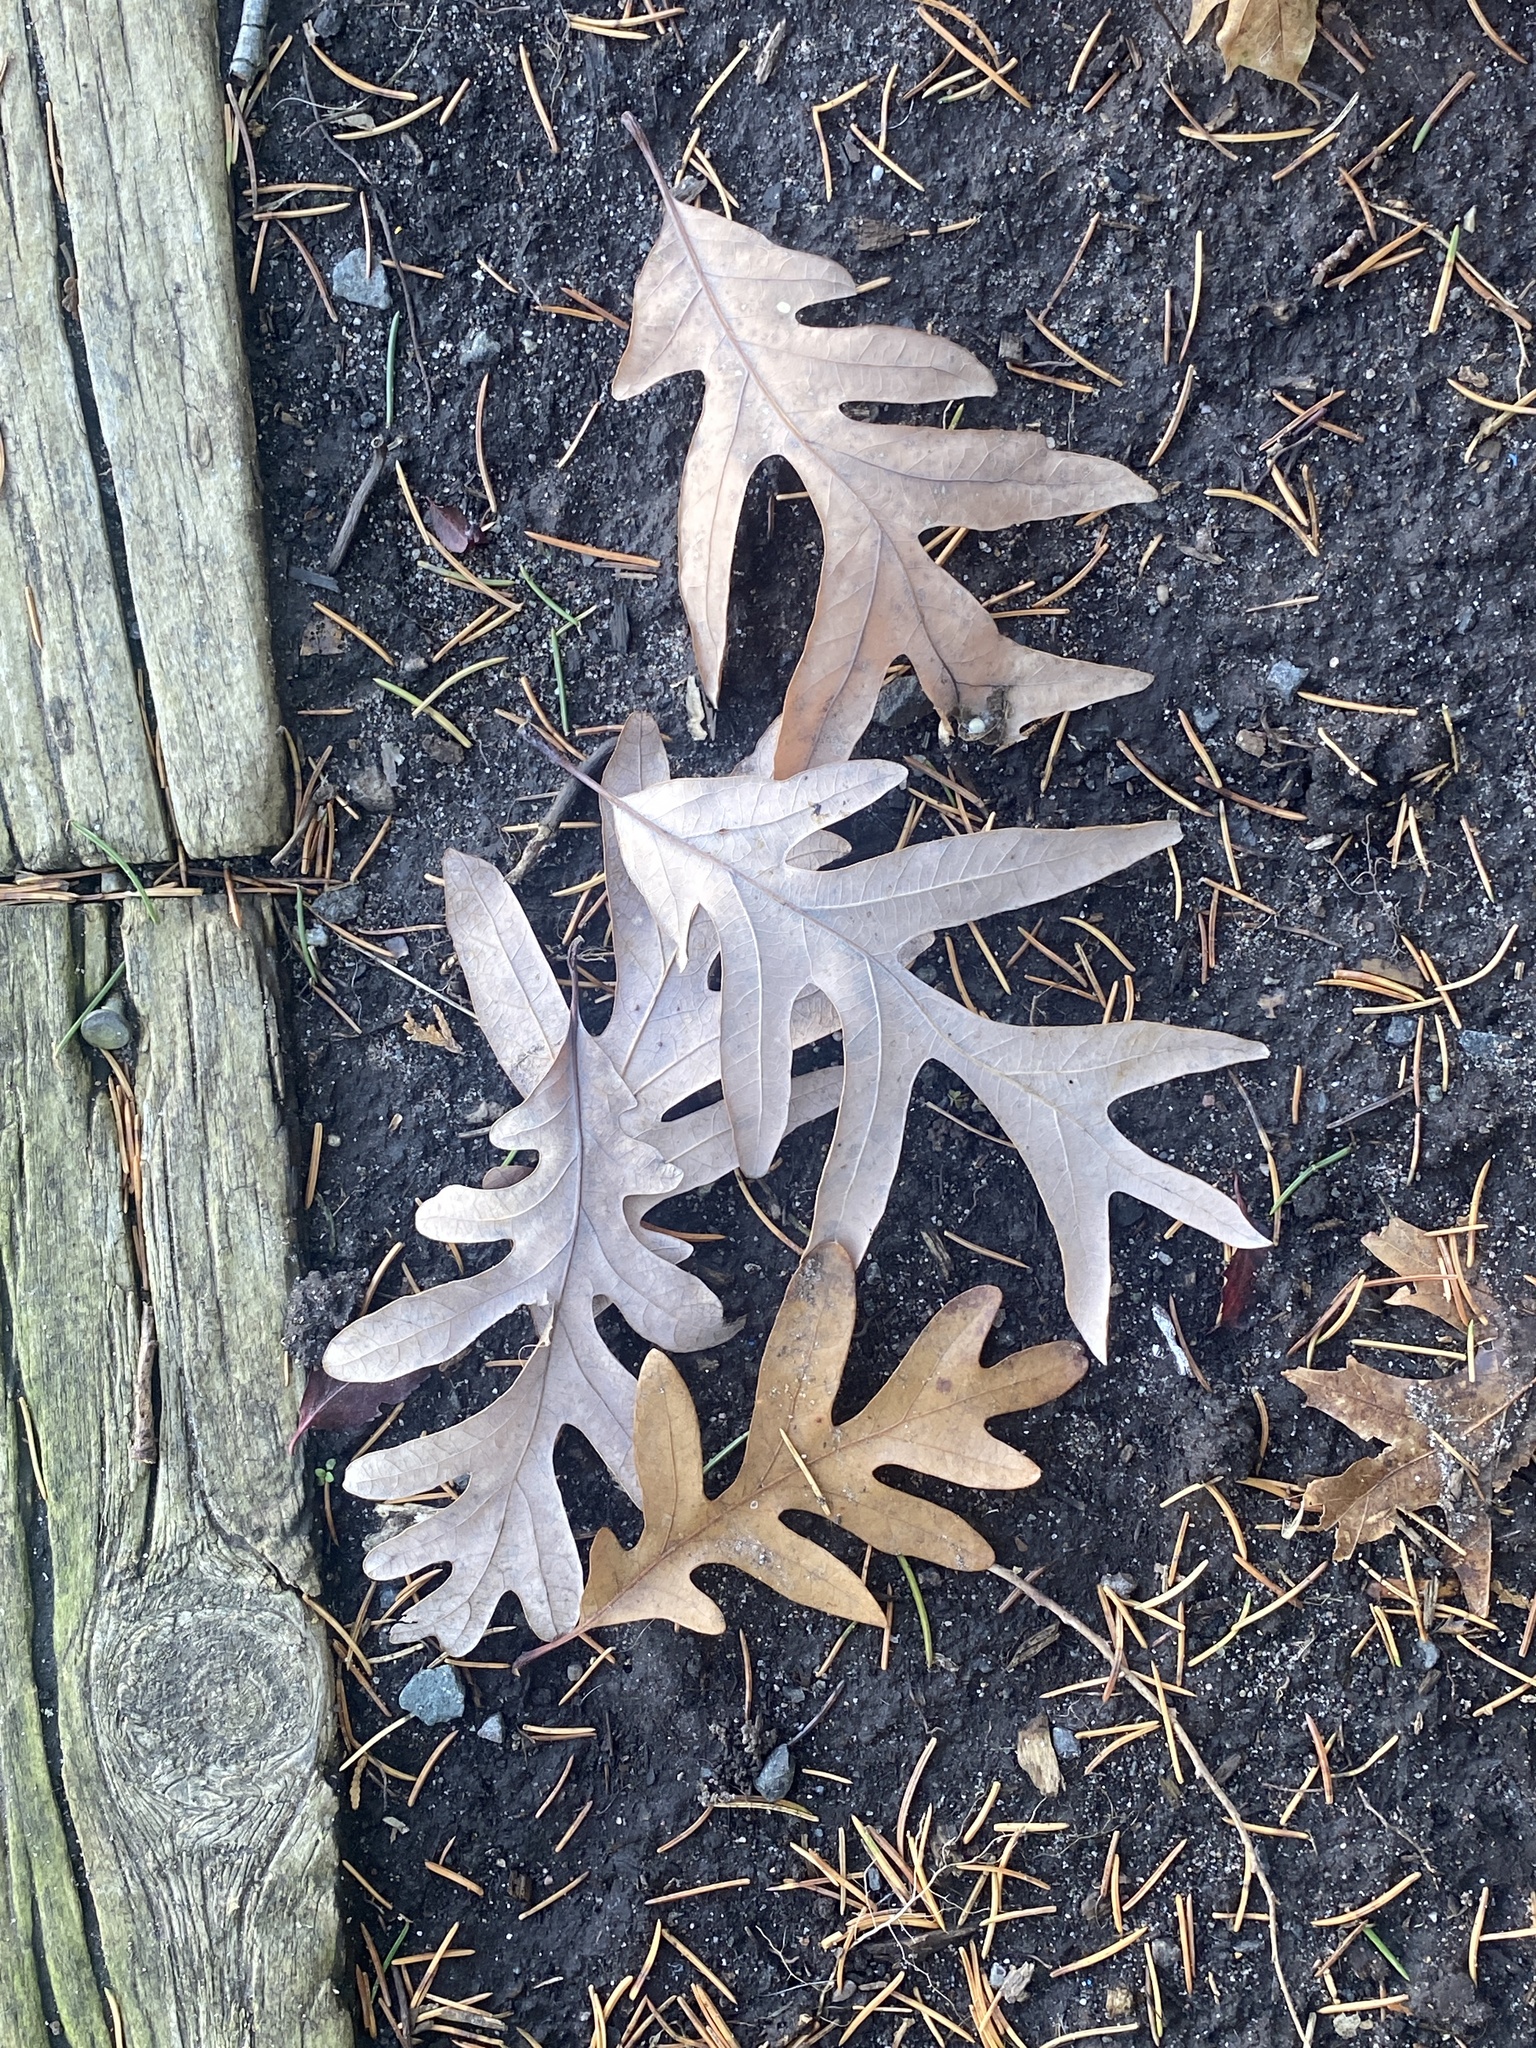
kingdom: Plantae
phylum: Tracheophyta
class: Magnoliopsida
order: Fagales
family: Fagaceae
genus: Quercus
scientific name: Quercus alba
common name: White oak
